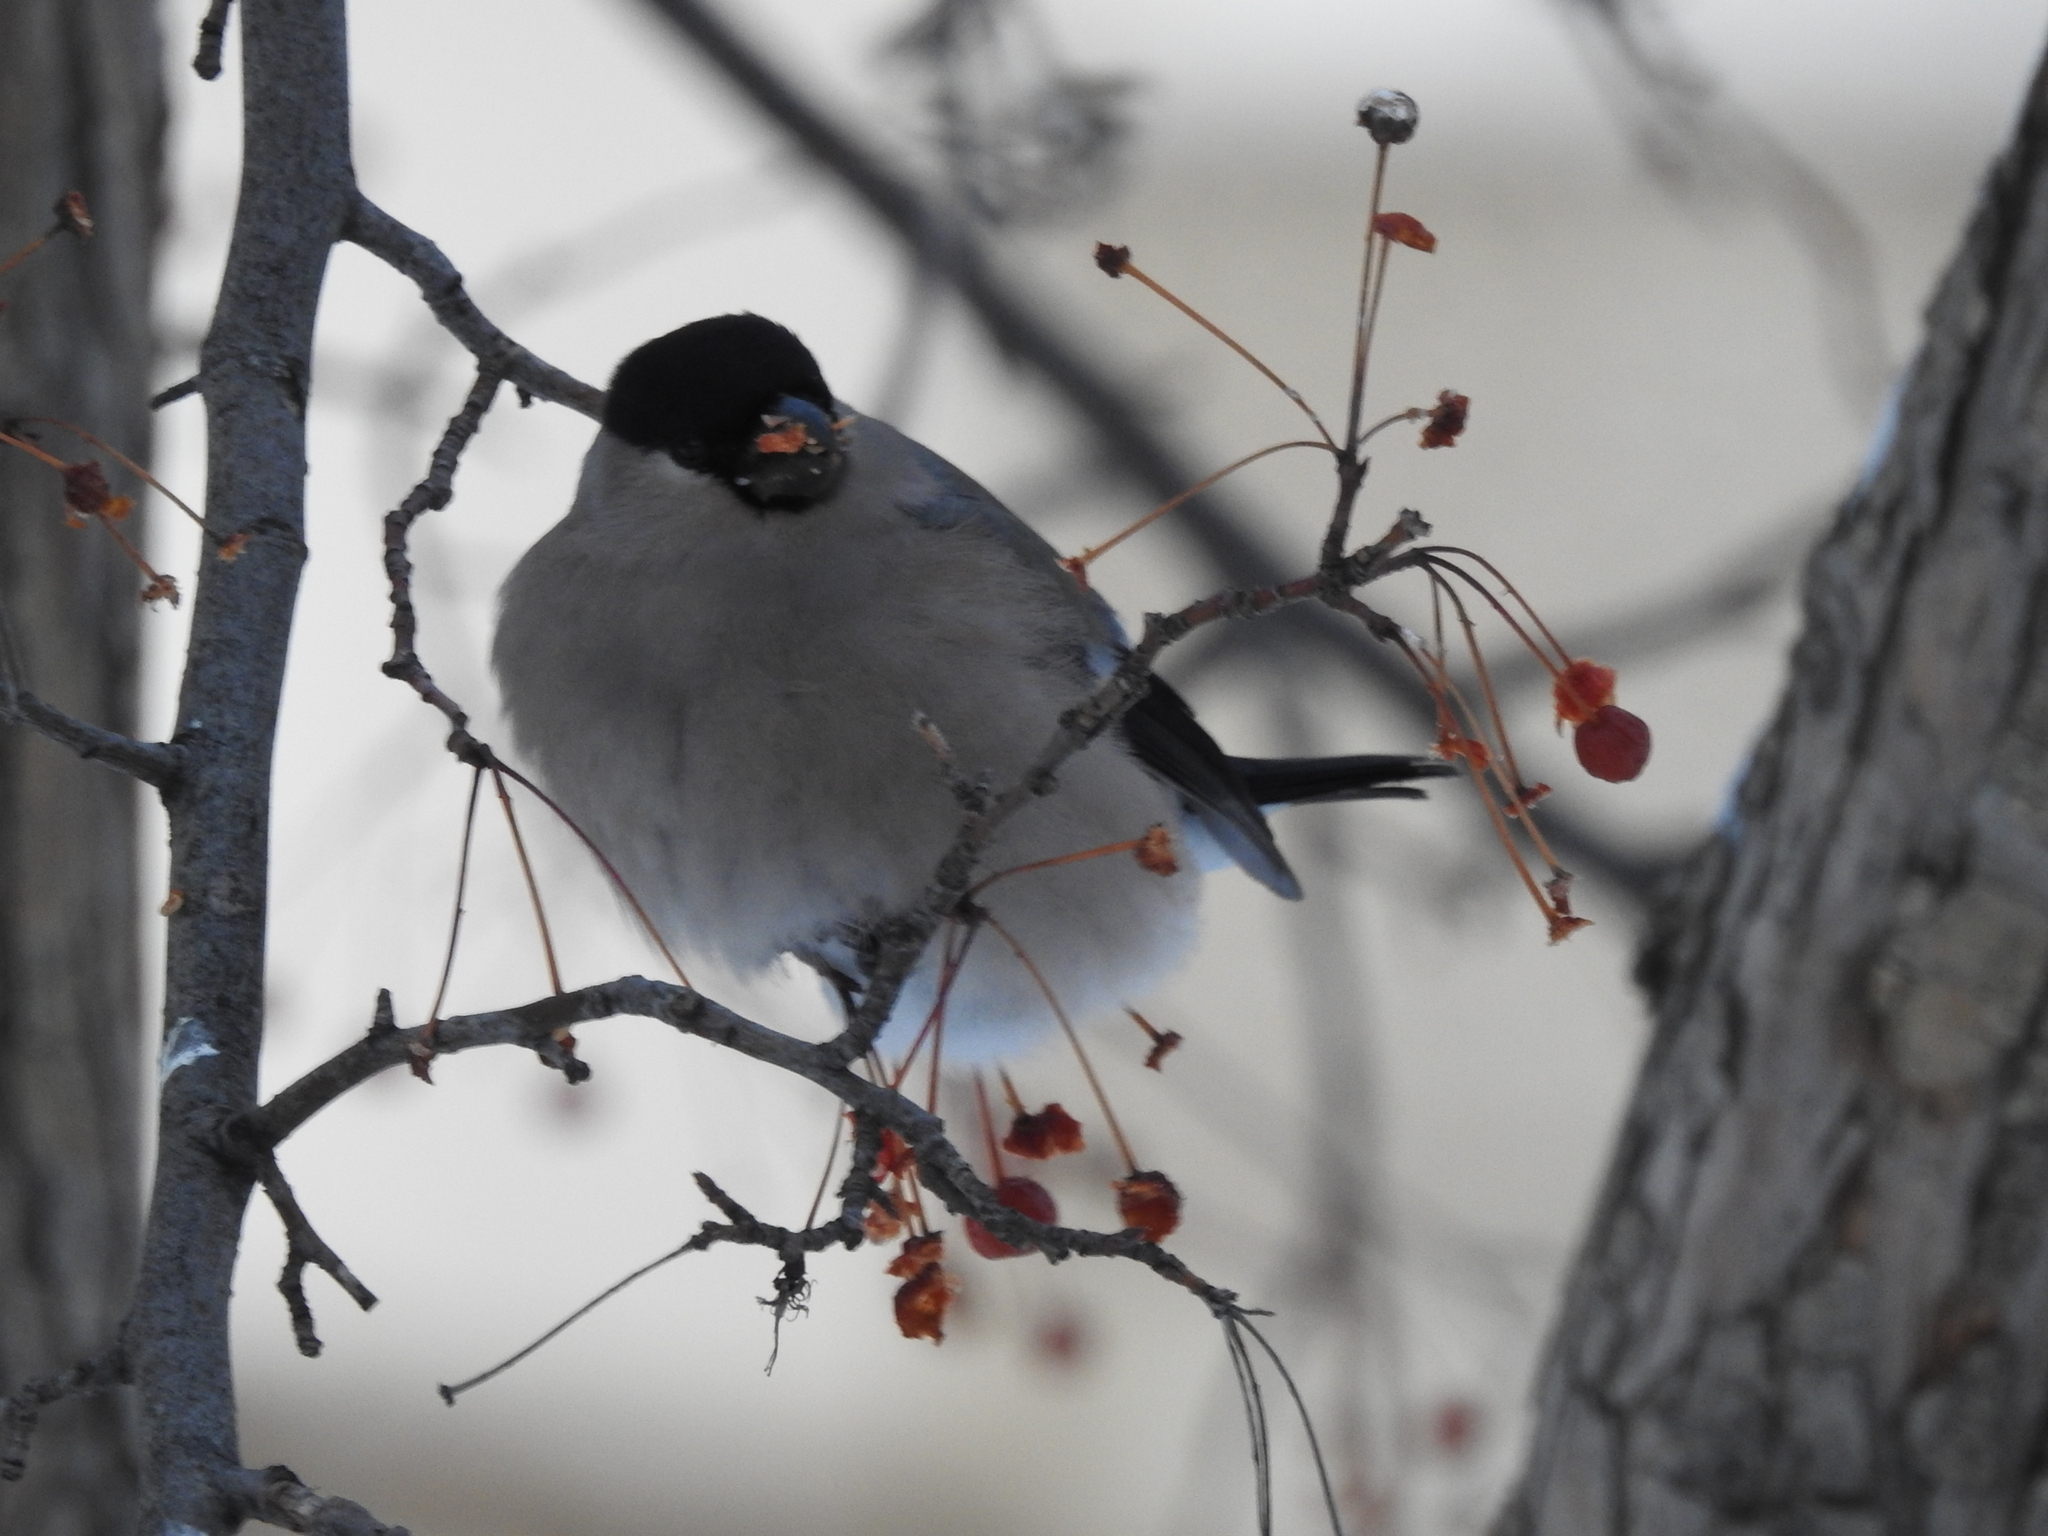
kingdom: Animalia
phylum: Chordata
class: Aves
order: Passeriformes
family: Fringillidae
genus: Pyrrhula
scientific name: Pyrrhula pyrrhula
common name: Eurasian bullfinch
